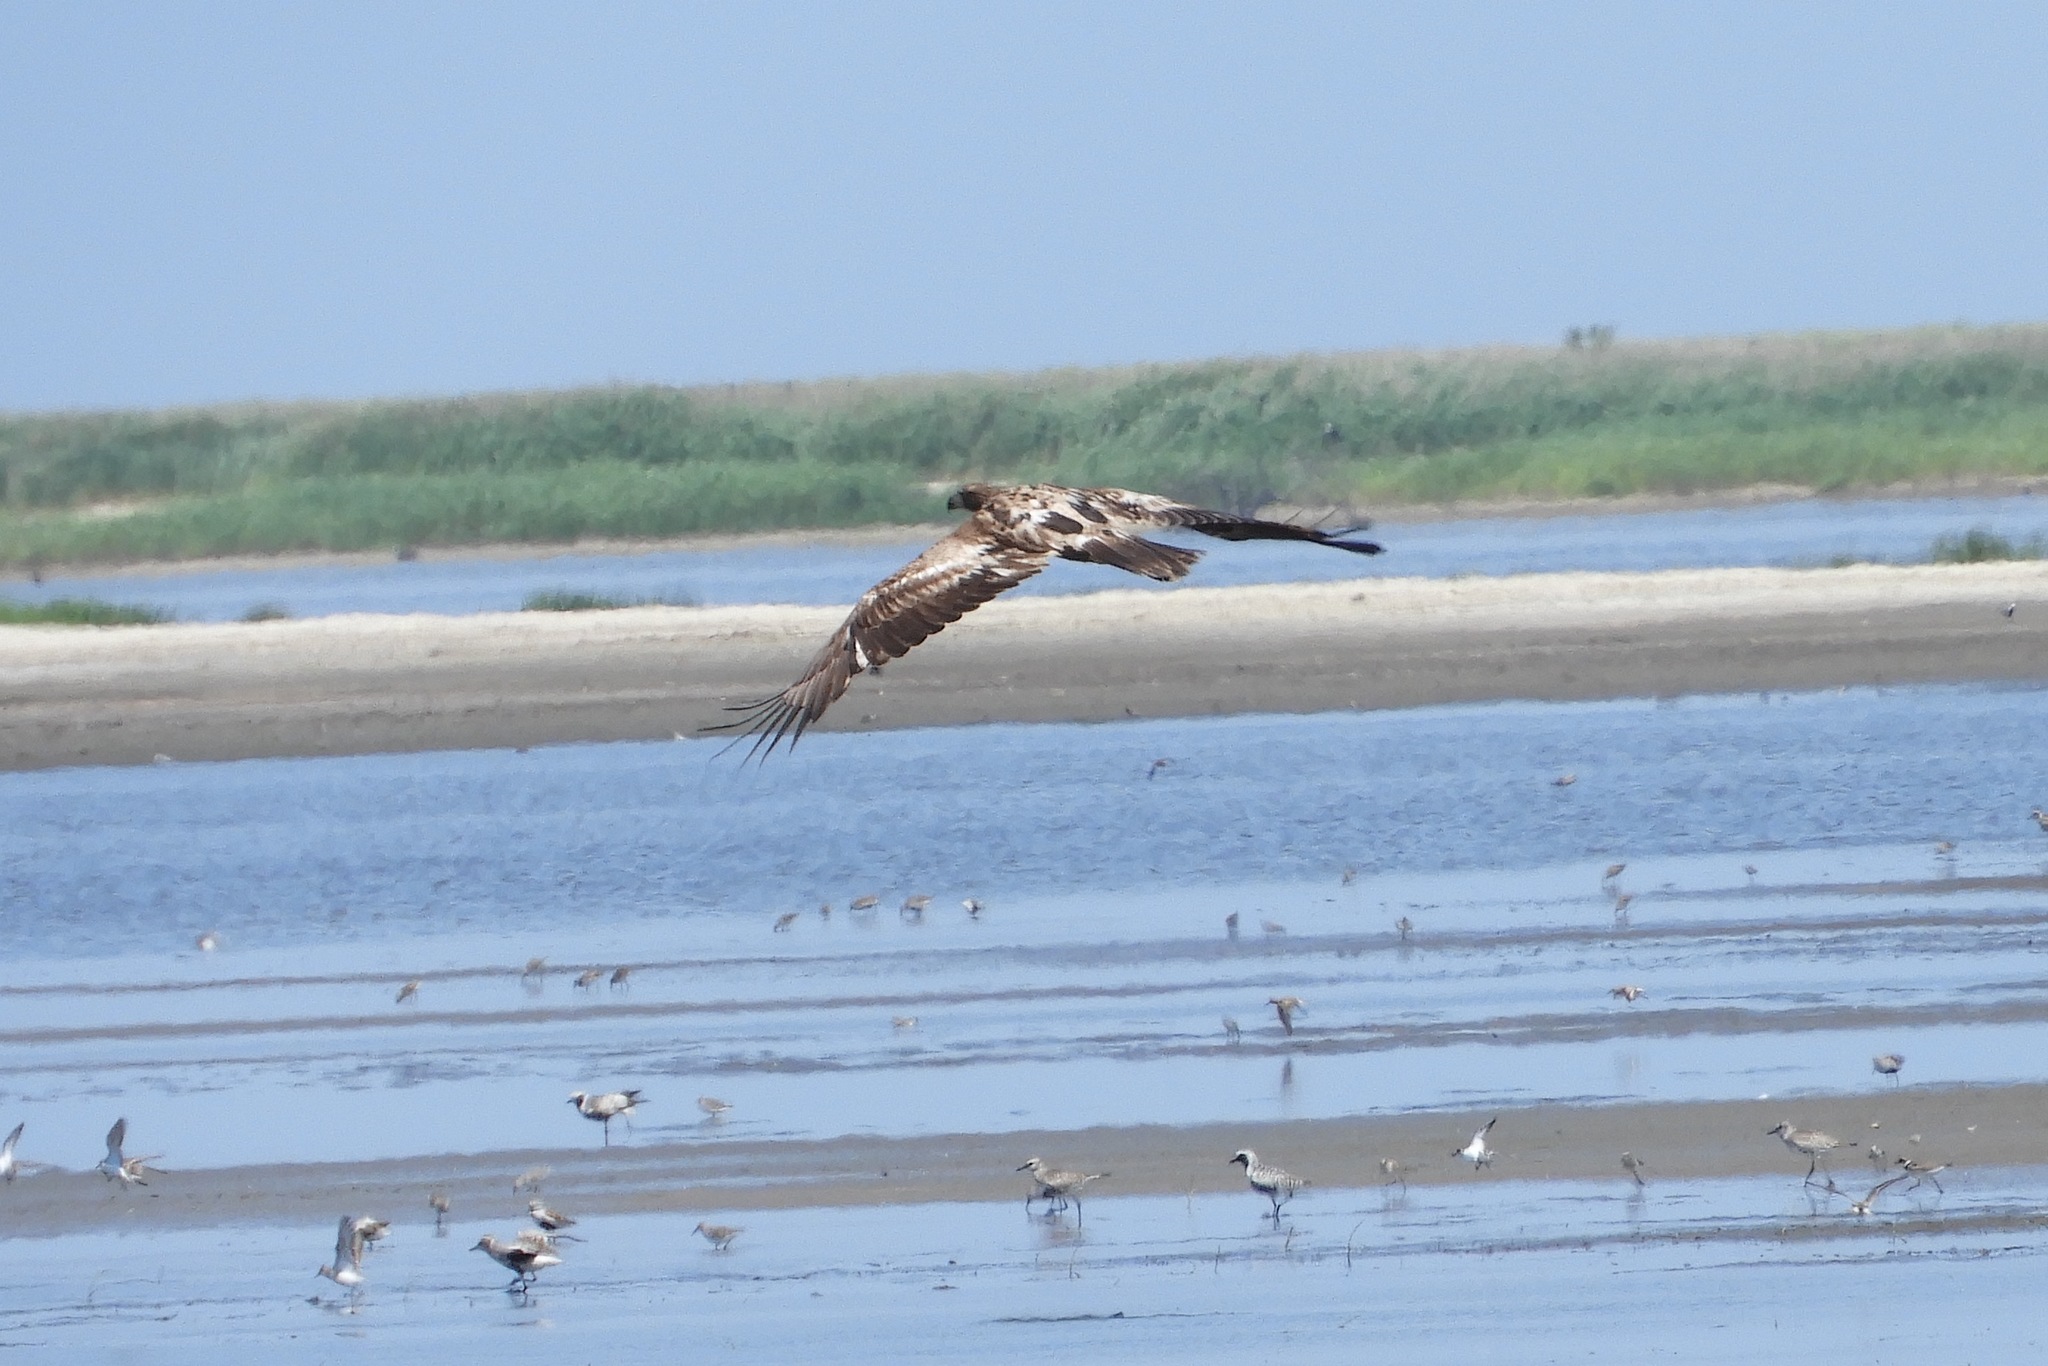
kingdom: Animalia
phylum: Chordata
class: Aves
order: Accipitriformes
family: Accipitridae
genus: Haliaeetus
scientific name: Haliaeetus leucocephalus
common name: Bald eagle
